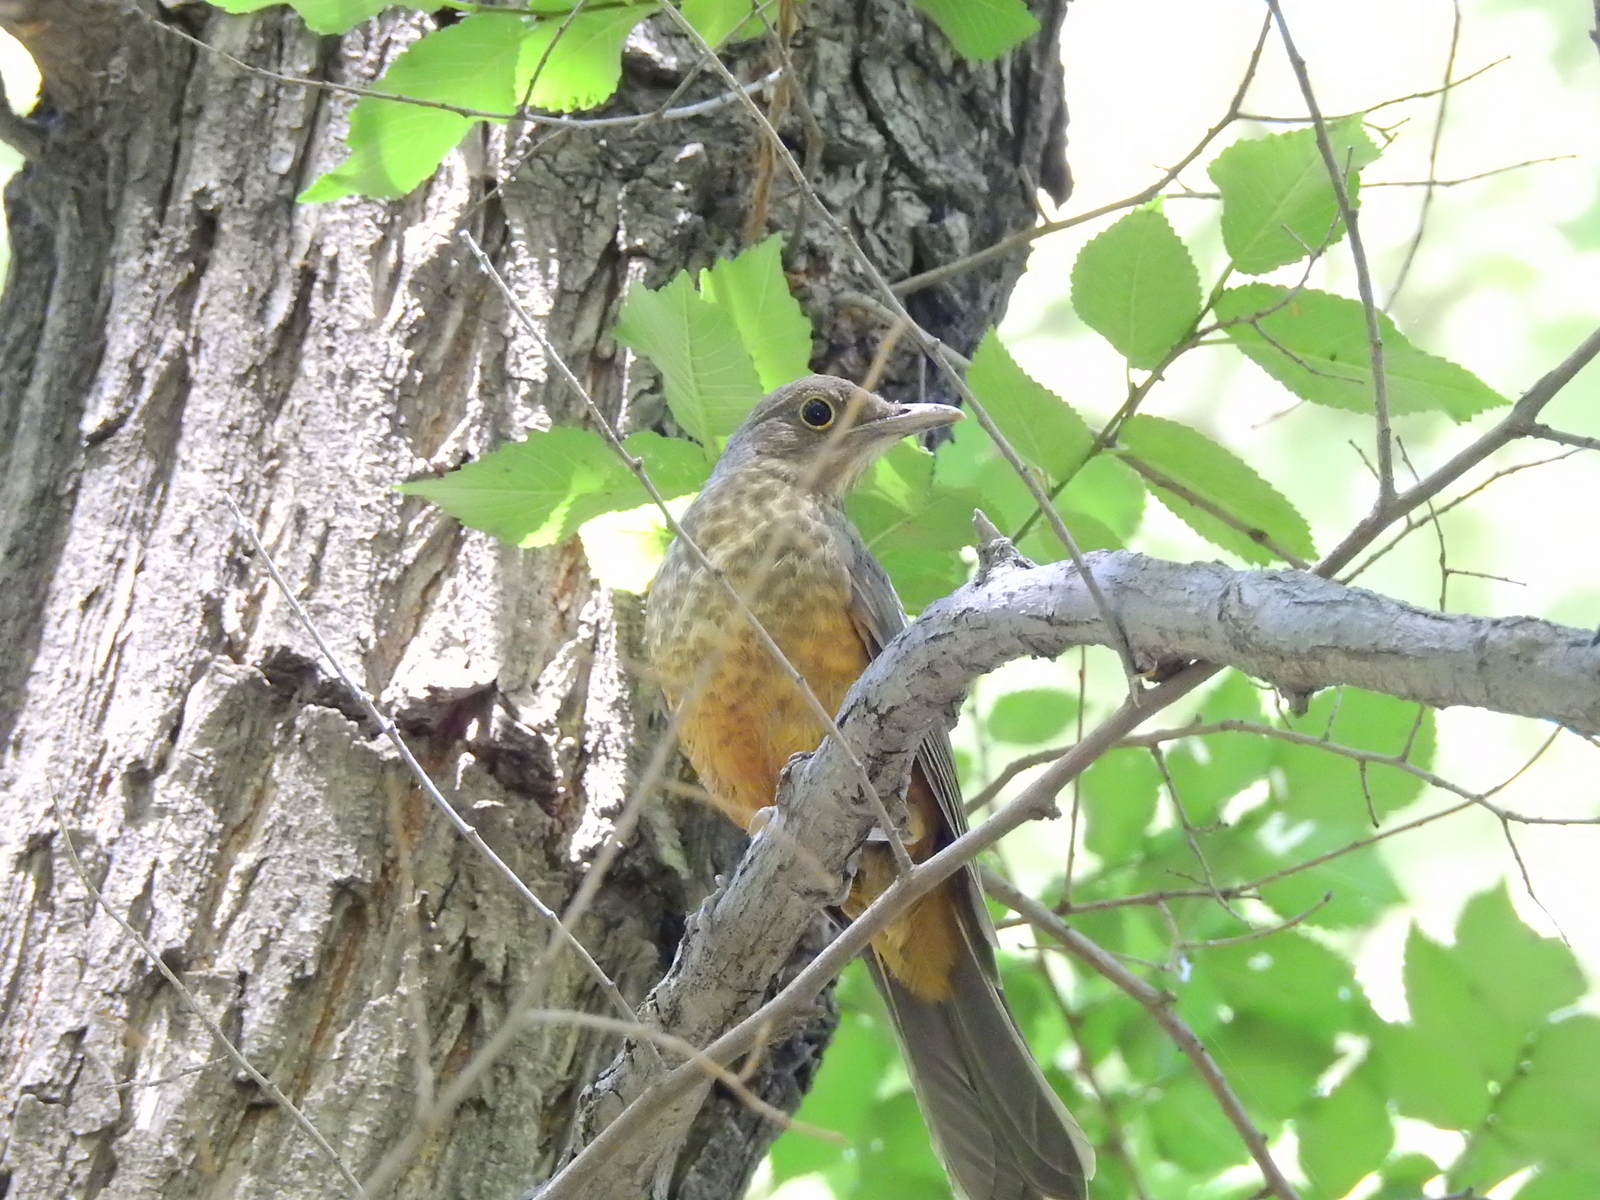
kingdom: Animalia
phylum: Chordata
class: Aves
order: Passeriformes
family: Turdidae
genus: Turdus
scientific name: Turdus rufiventris
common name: Rufous-bellied thrush
